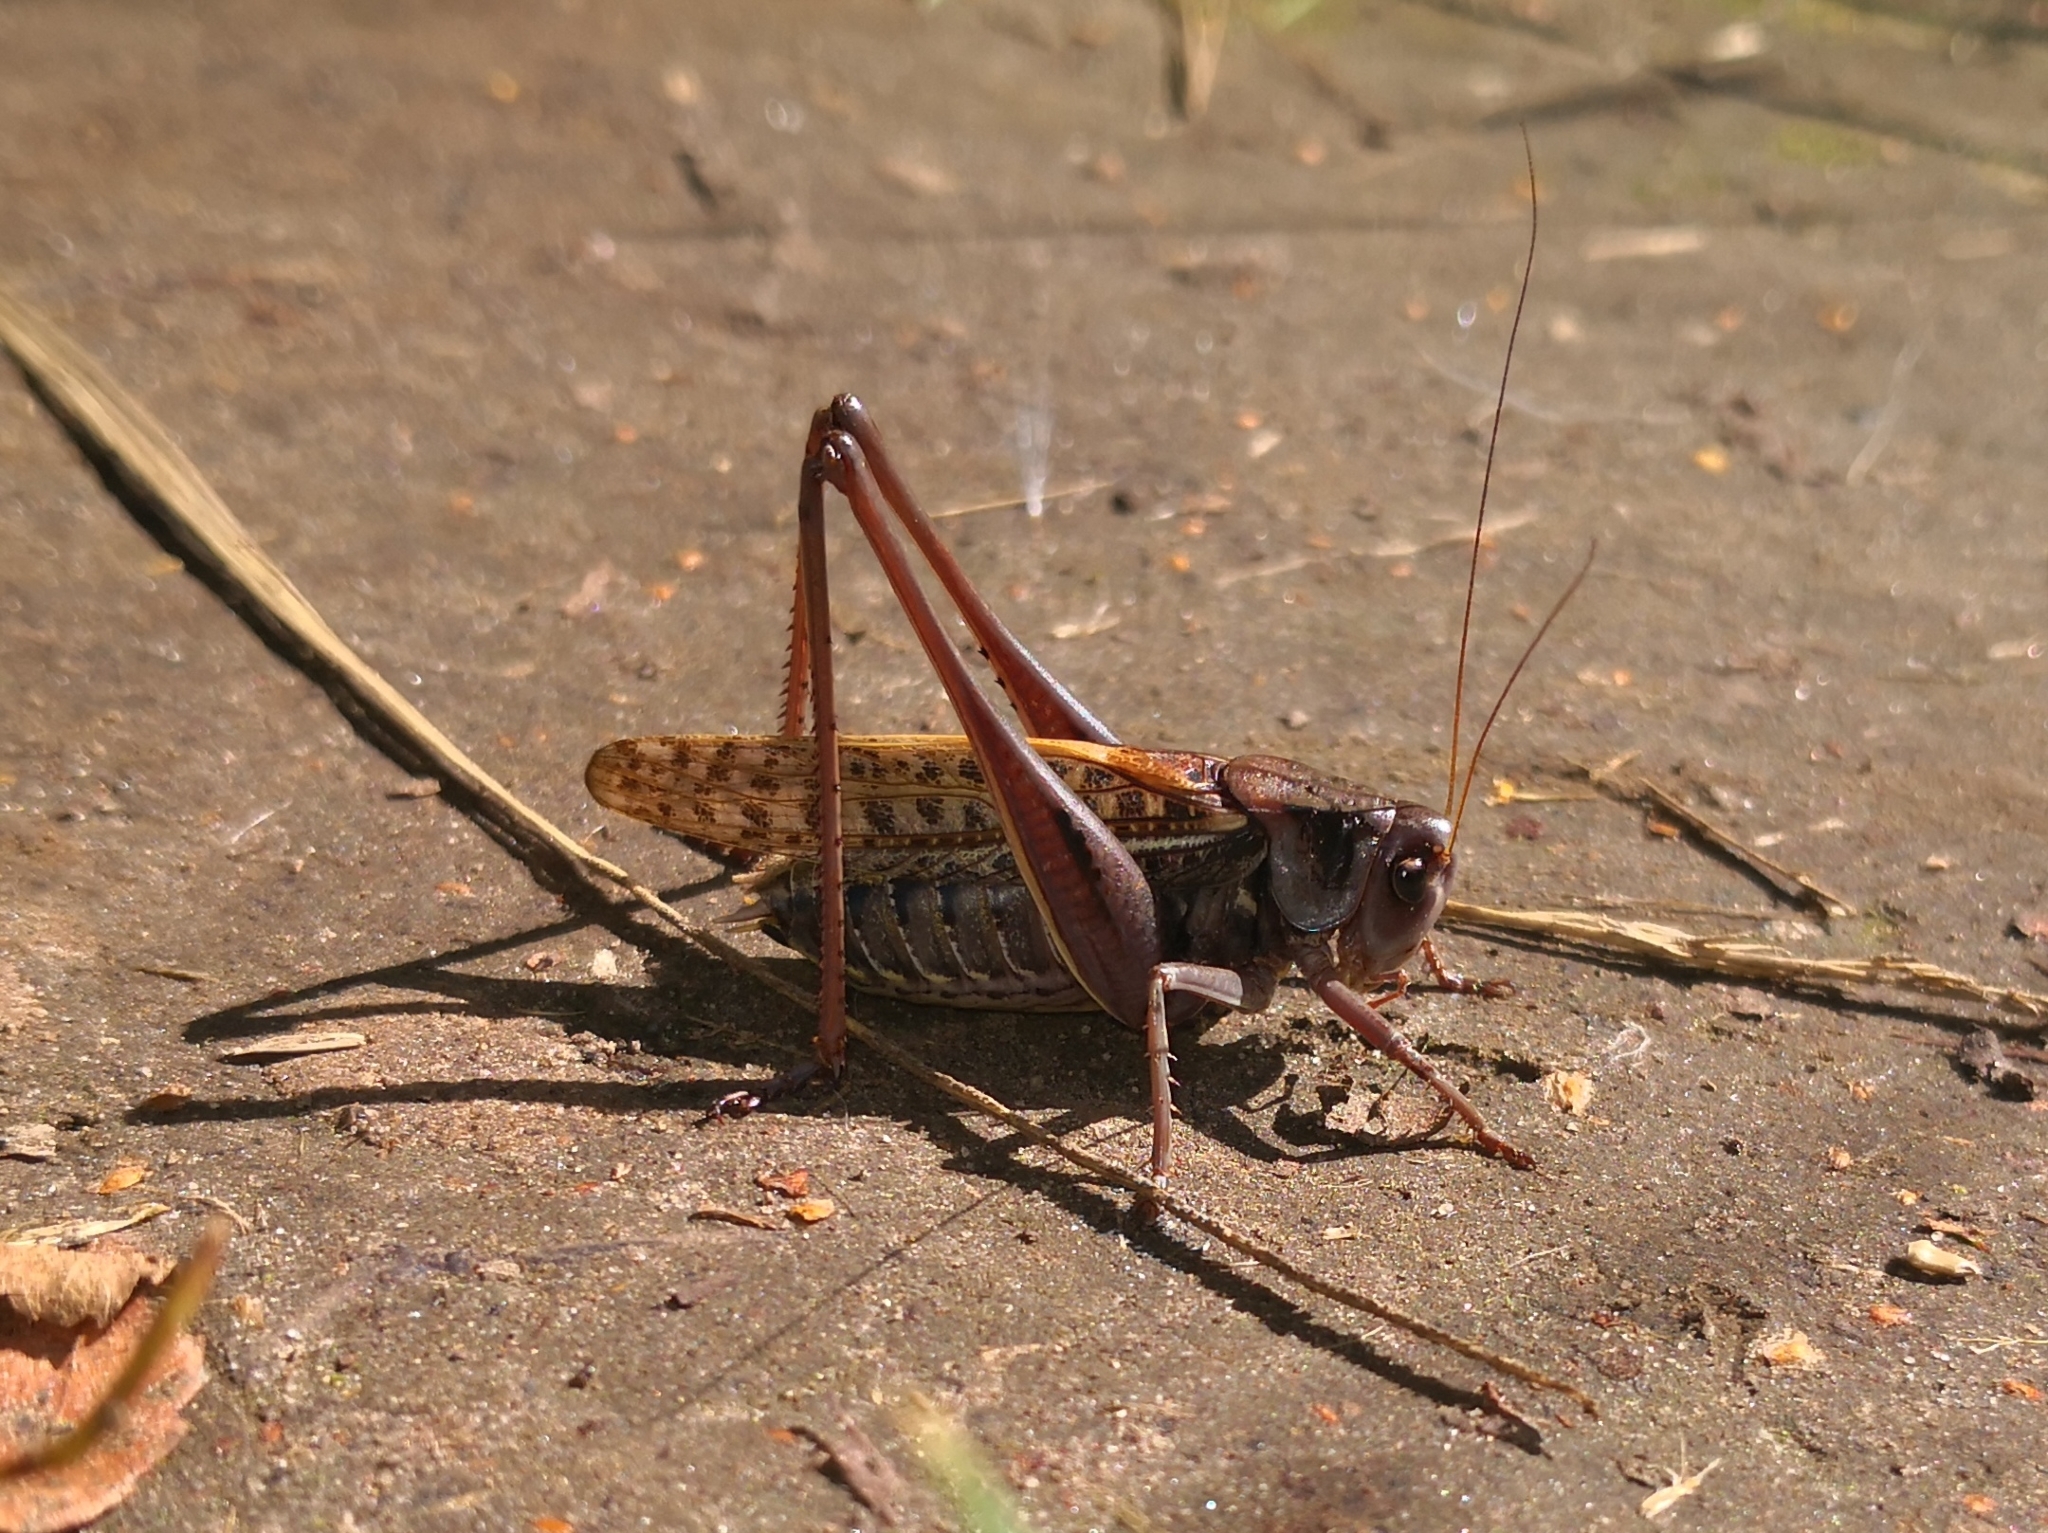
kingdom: Animalia
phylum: Arthropoda
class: Insecta
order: Orthoptera
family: Tettigoniidae
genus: Decticus
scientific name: Decticus verrucivorus
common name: Wart-biter
